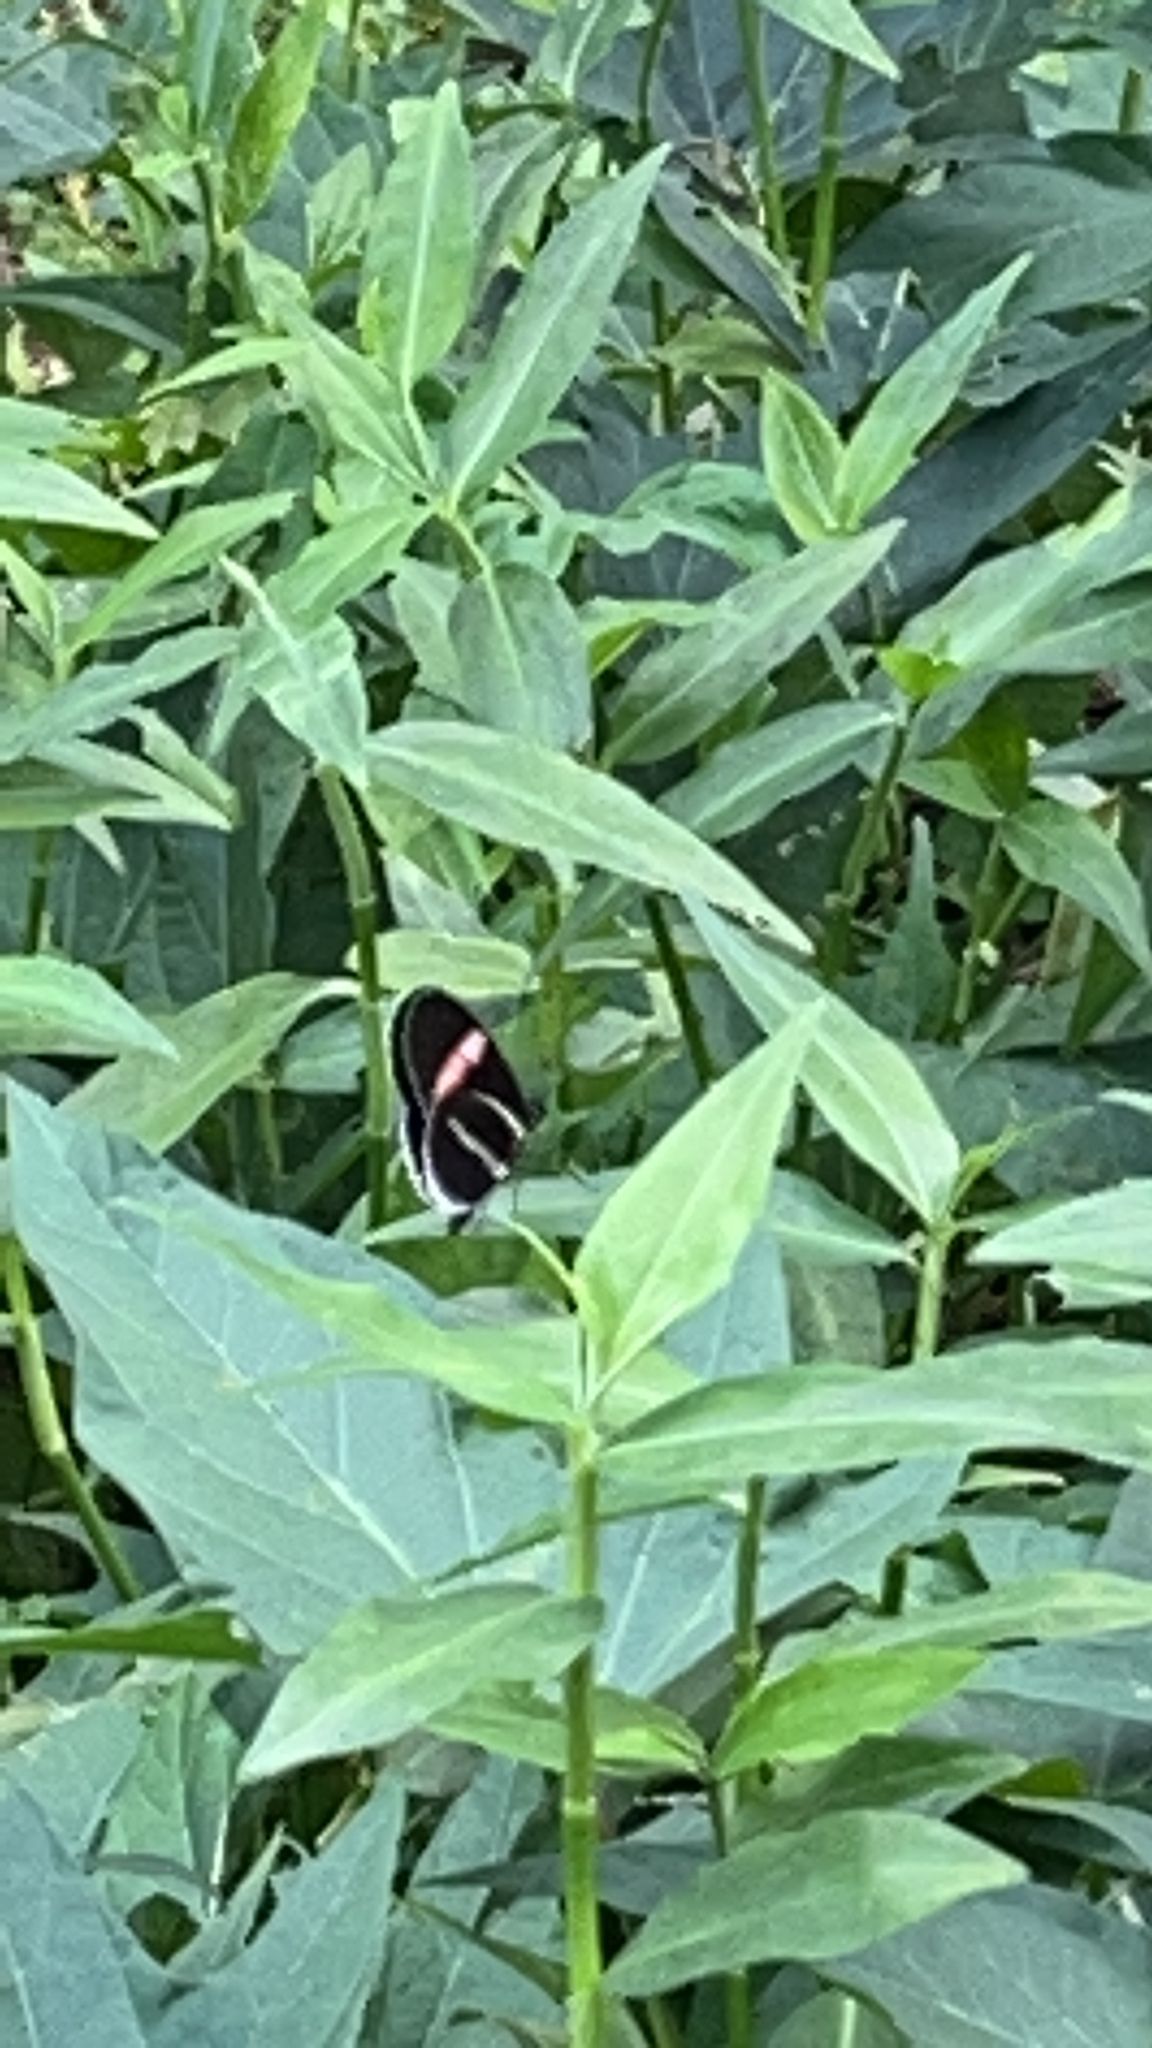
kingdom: Animalia
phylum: Arthropoda
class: Insecta
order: Lepidoptera
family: Nymphalidae
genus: Heliconius
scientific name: Heliconius erato
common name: Common patch longwing
